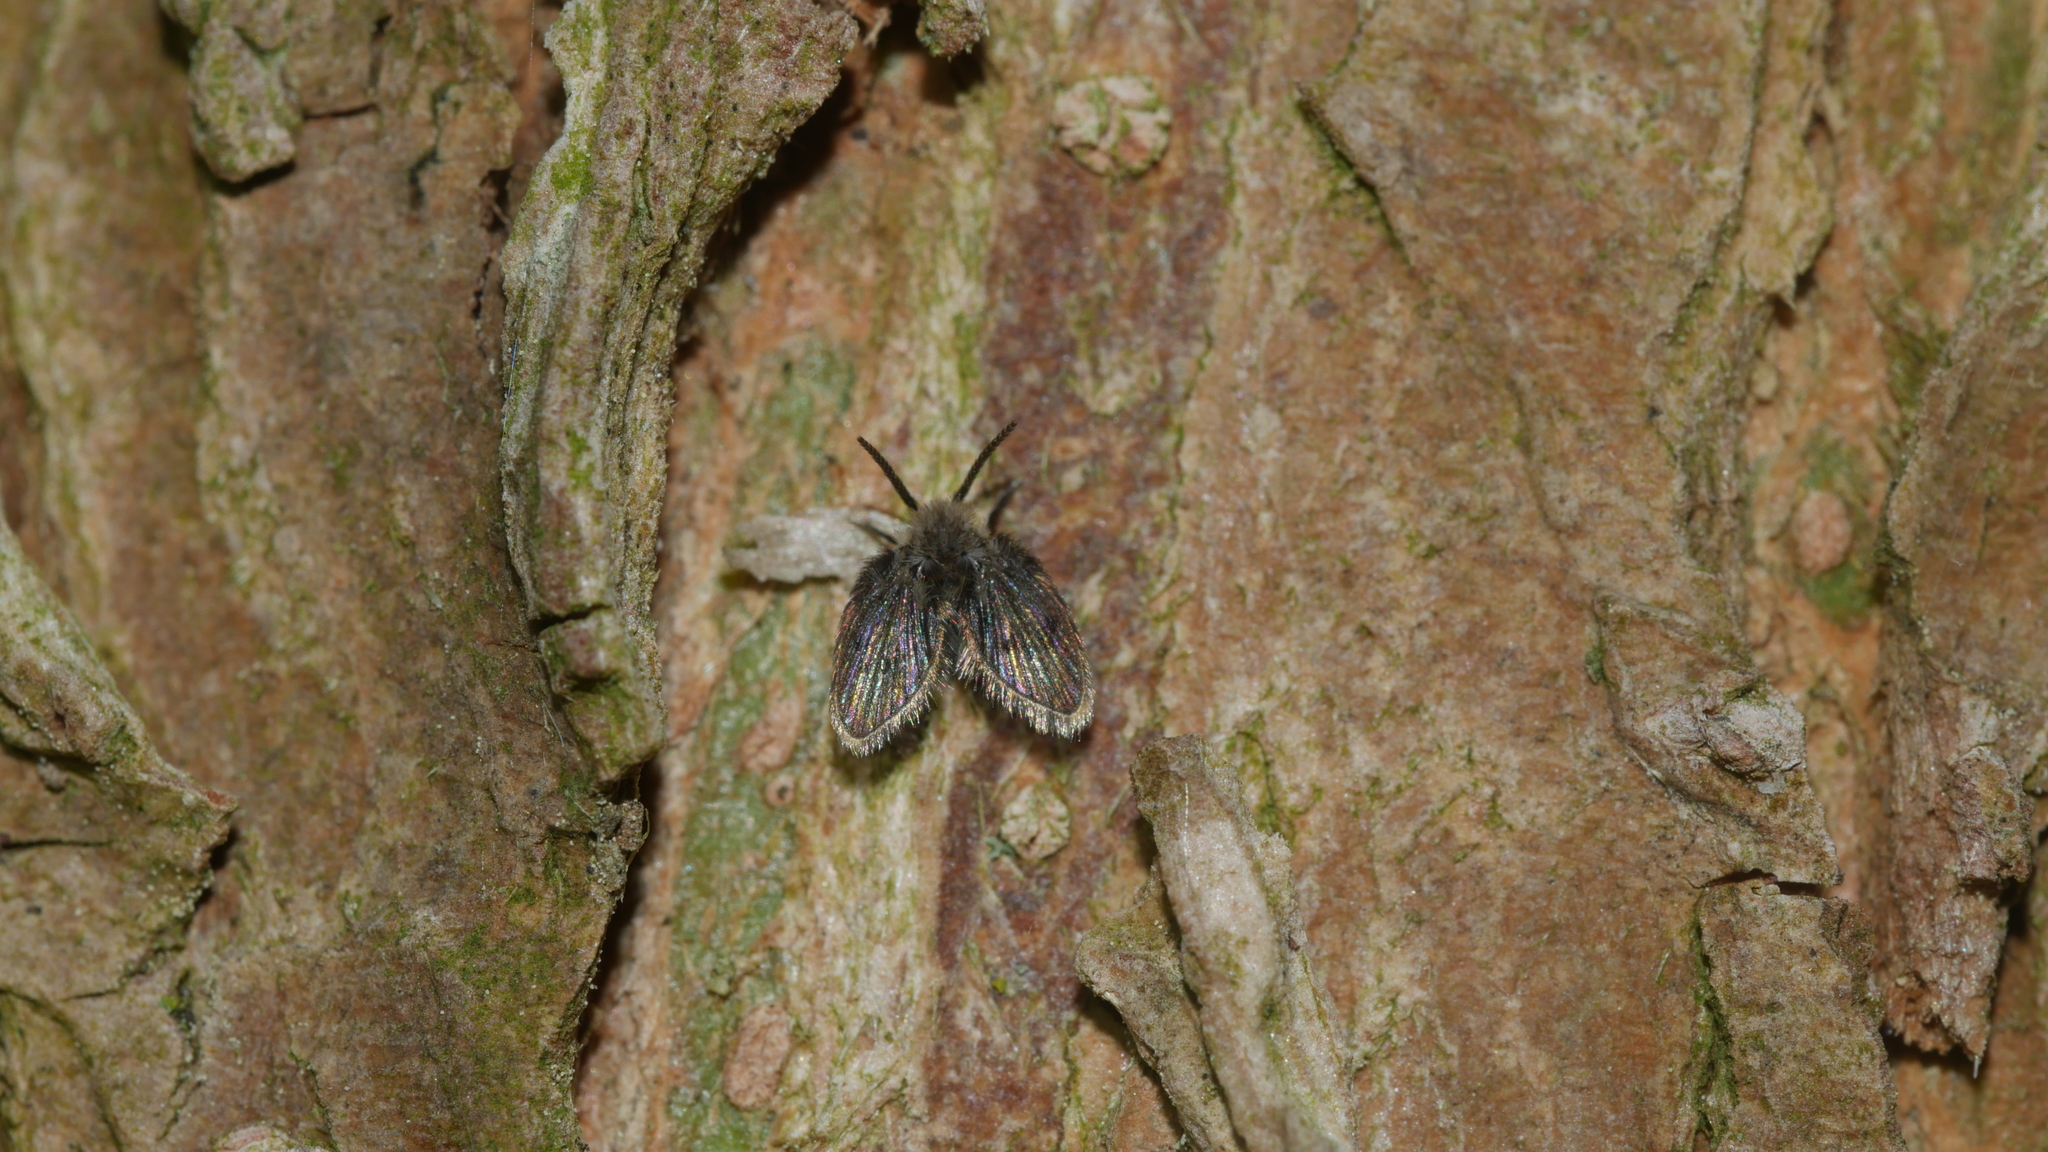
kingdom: Animalia
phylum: Arthropoda
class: Insecta
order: Diptera
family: Psychodidae
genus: Lepiseodina
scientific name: Lepiseodina
